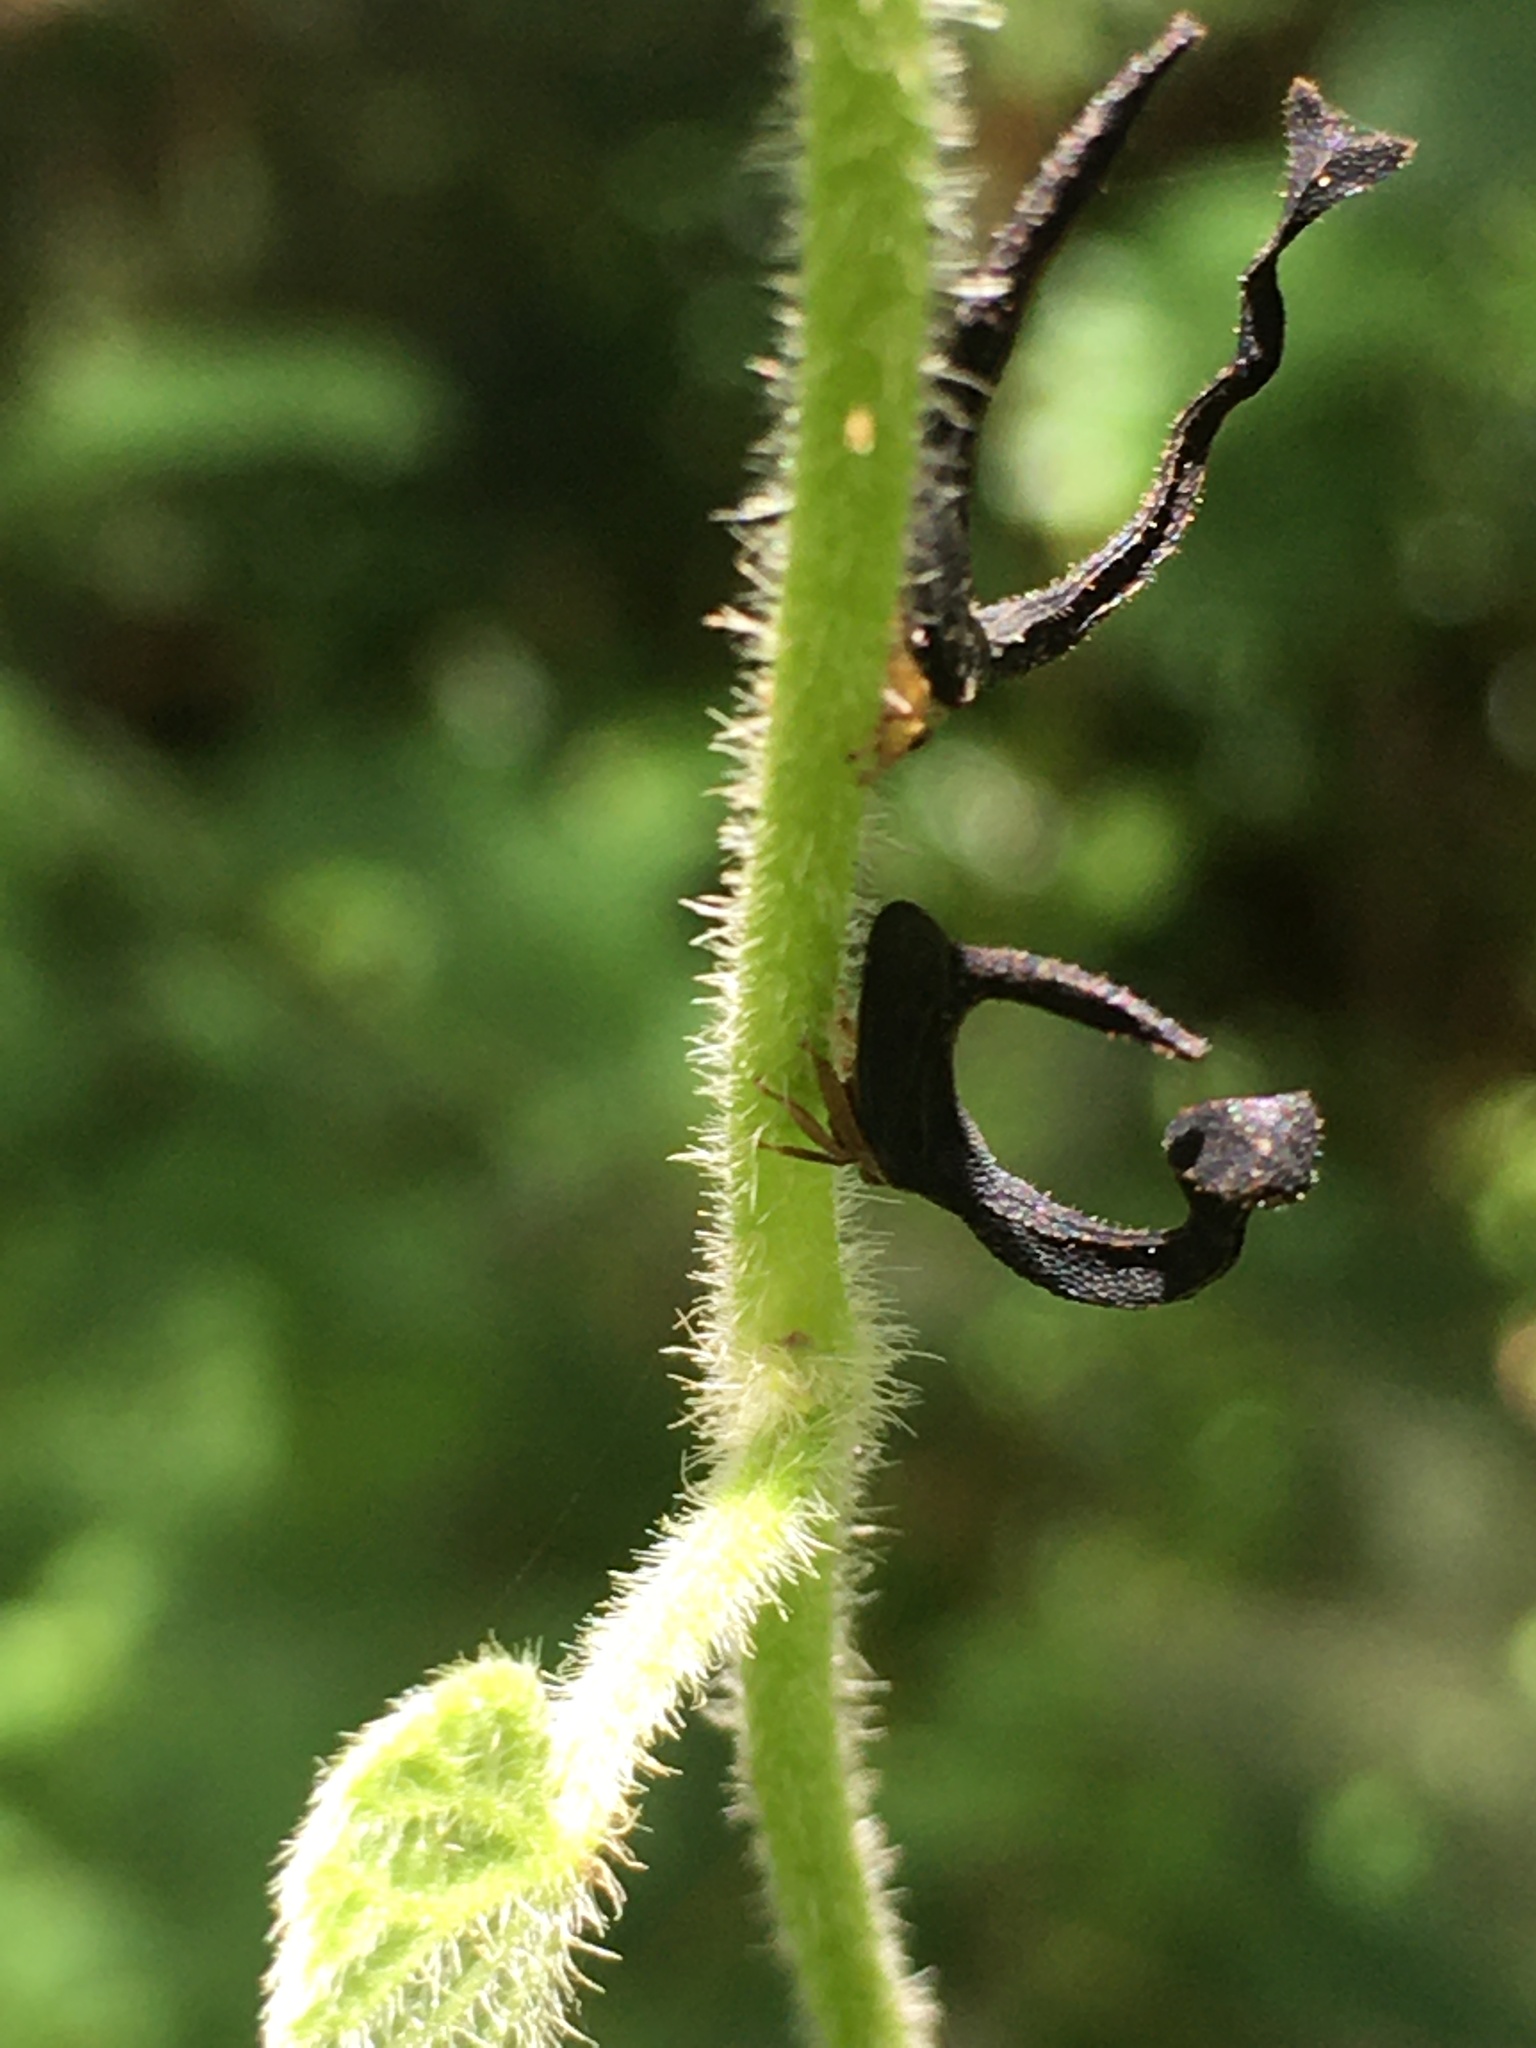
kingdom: Animalia
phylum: Arthropoda
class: Insecta
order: Hemiptera
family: Membracidae
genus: Cladonota
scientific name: Cladonota apicalis
